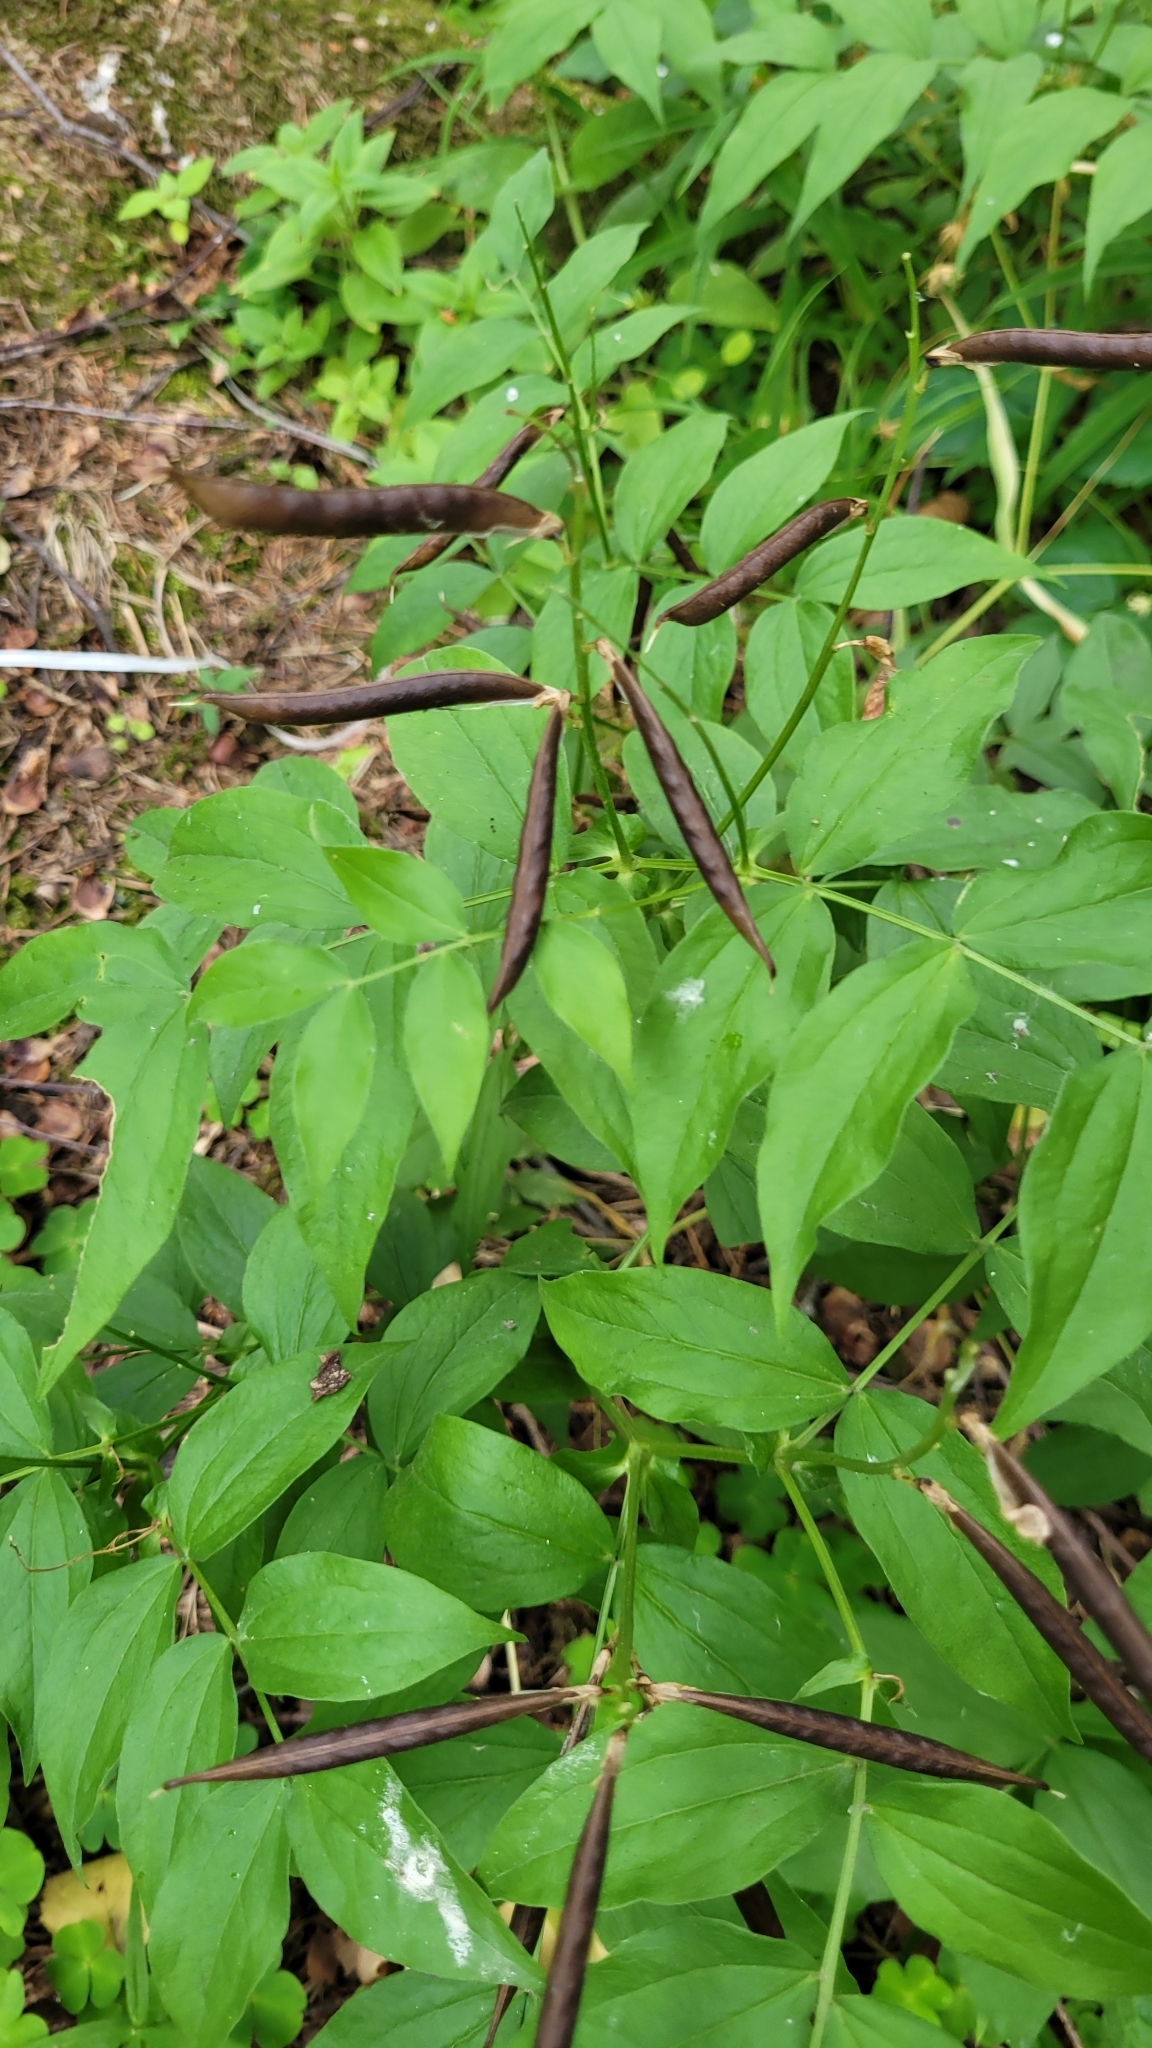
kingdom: Plantae
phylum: Tracheophyta
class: Magnoliopsida
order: Fabales
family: Fabaceae
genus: Lathyrus
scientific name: Lathyrus vernus
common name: Spring pea
